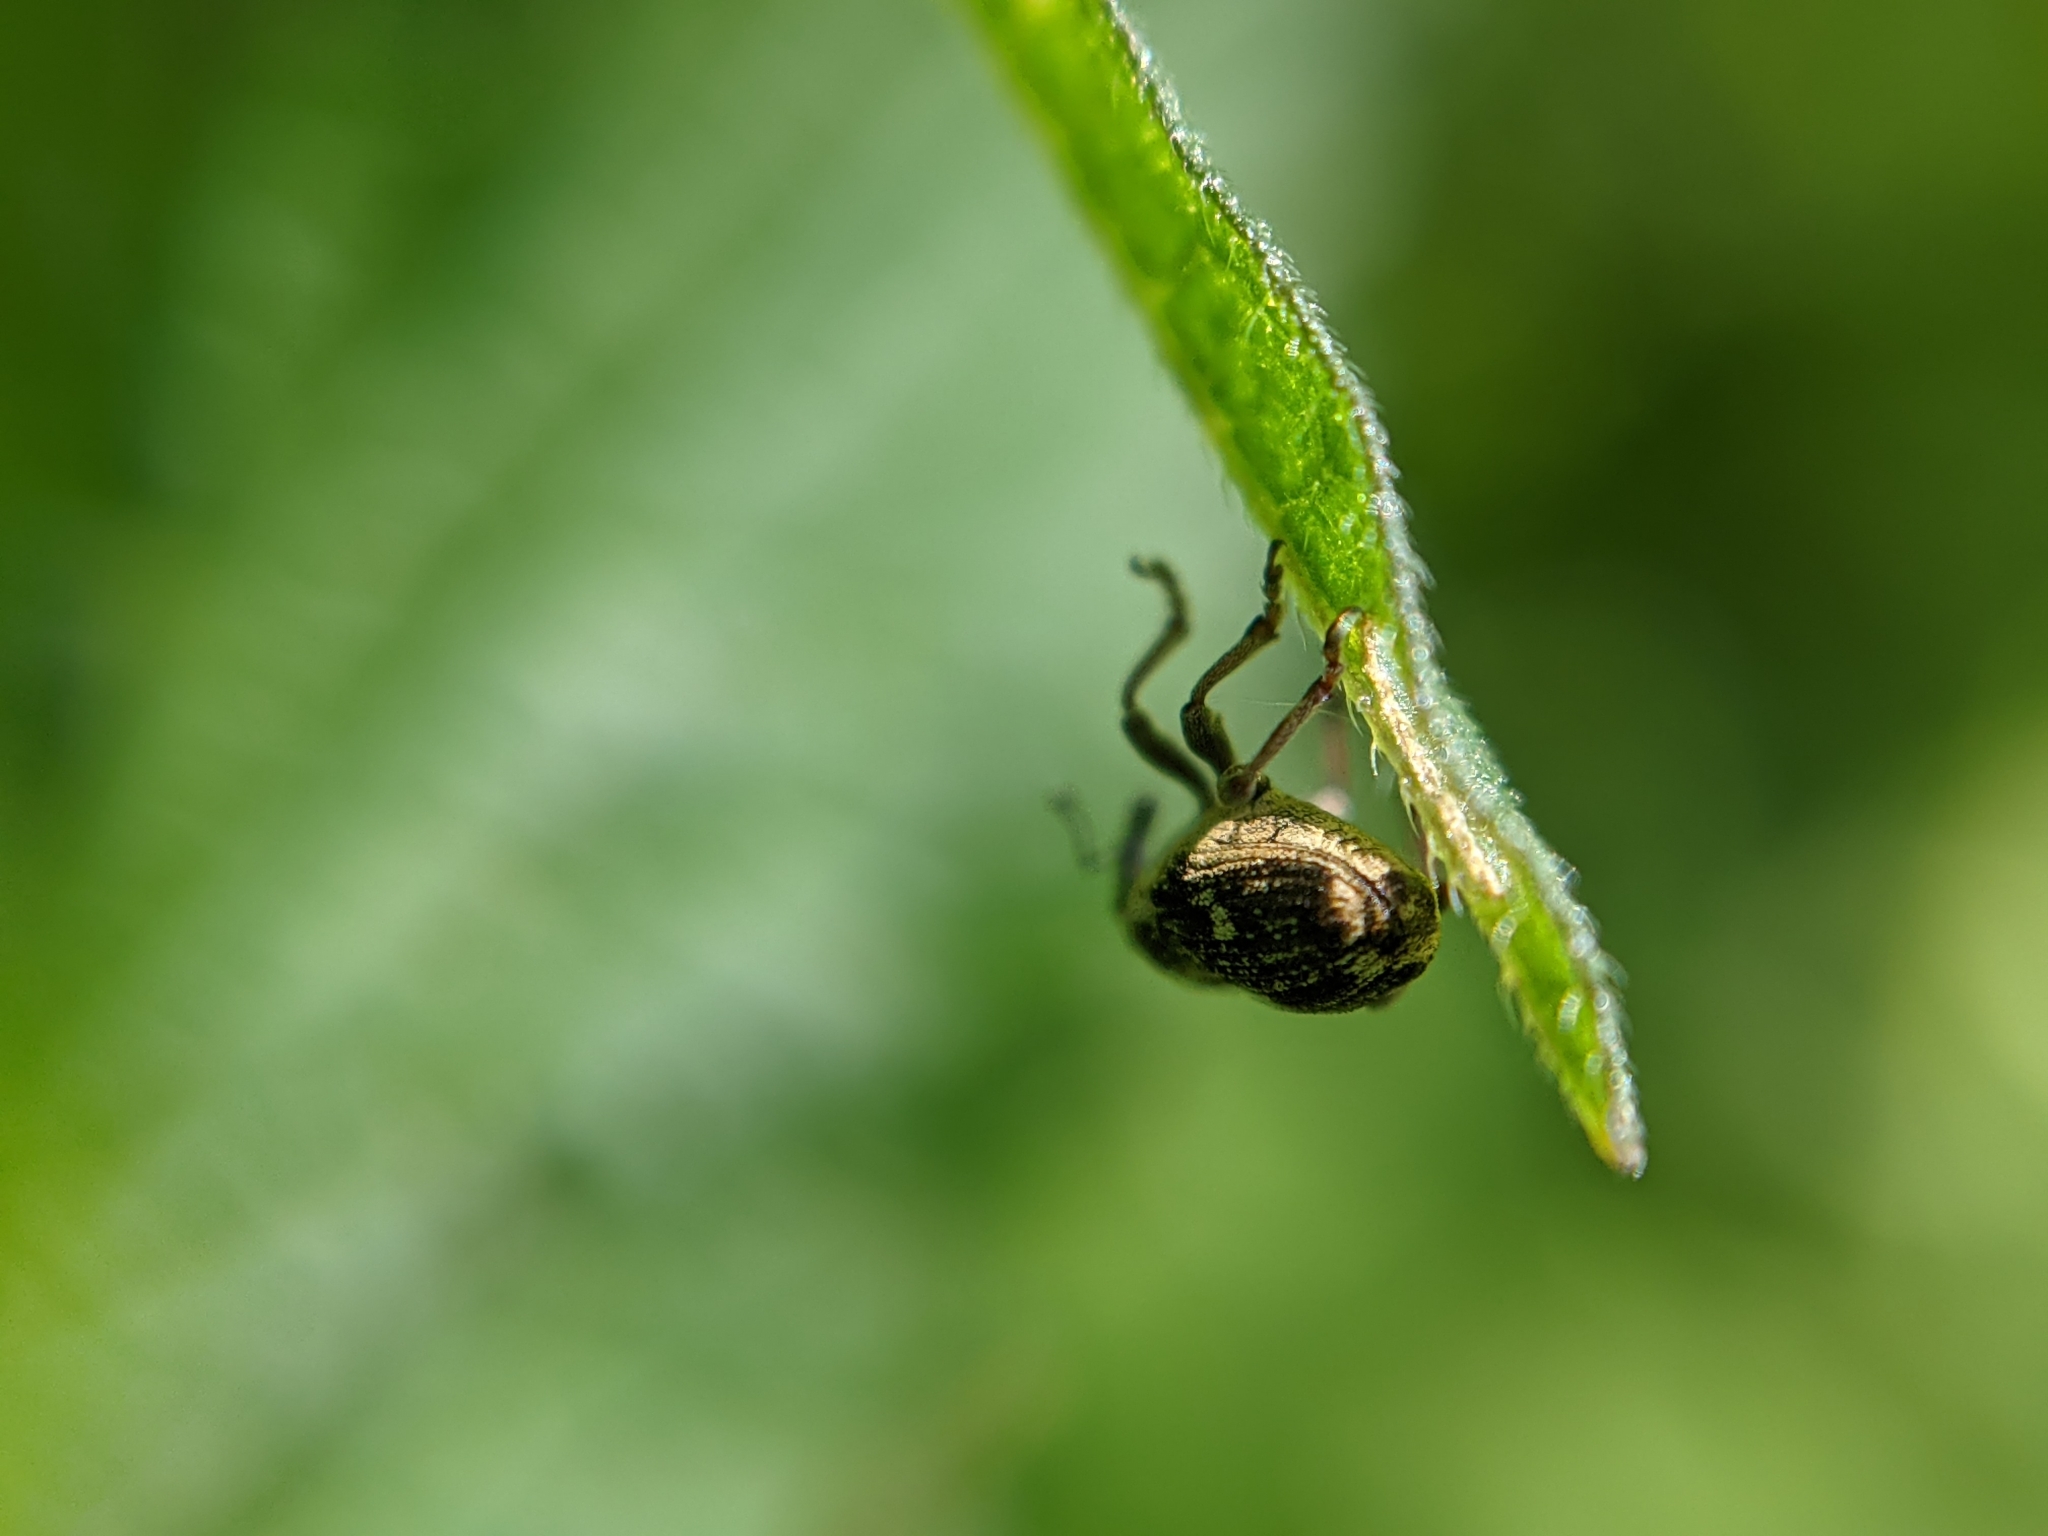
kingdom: Animalia
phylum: Arthropoda
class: Insecta
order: Coleoptera
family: Curculionidae
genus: Nedyus
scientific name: Nedyus quadrimaculatus
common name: Small nettle weevil
